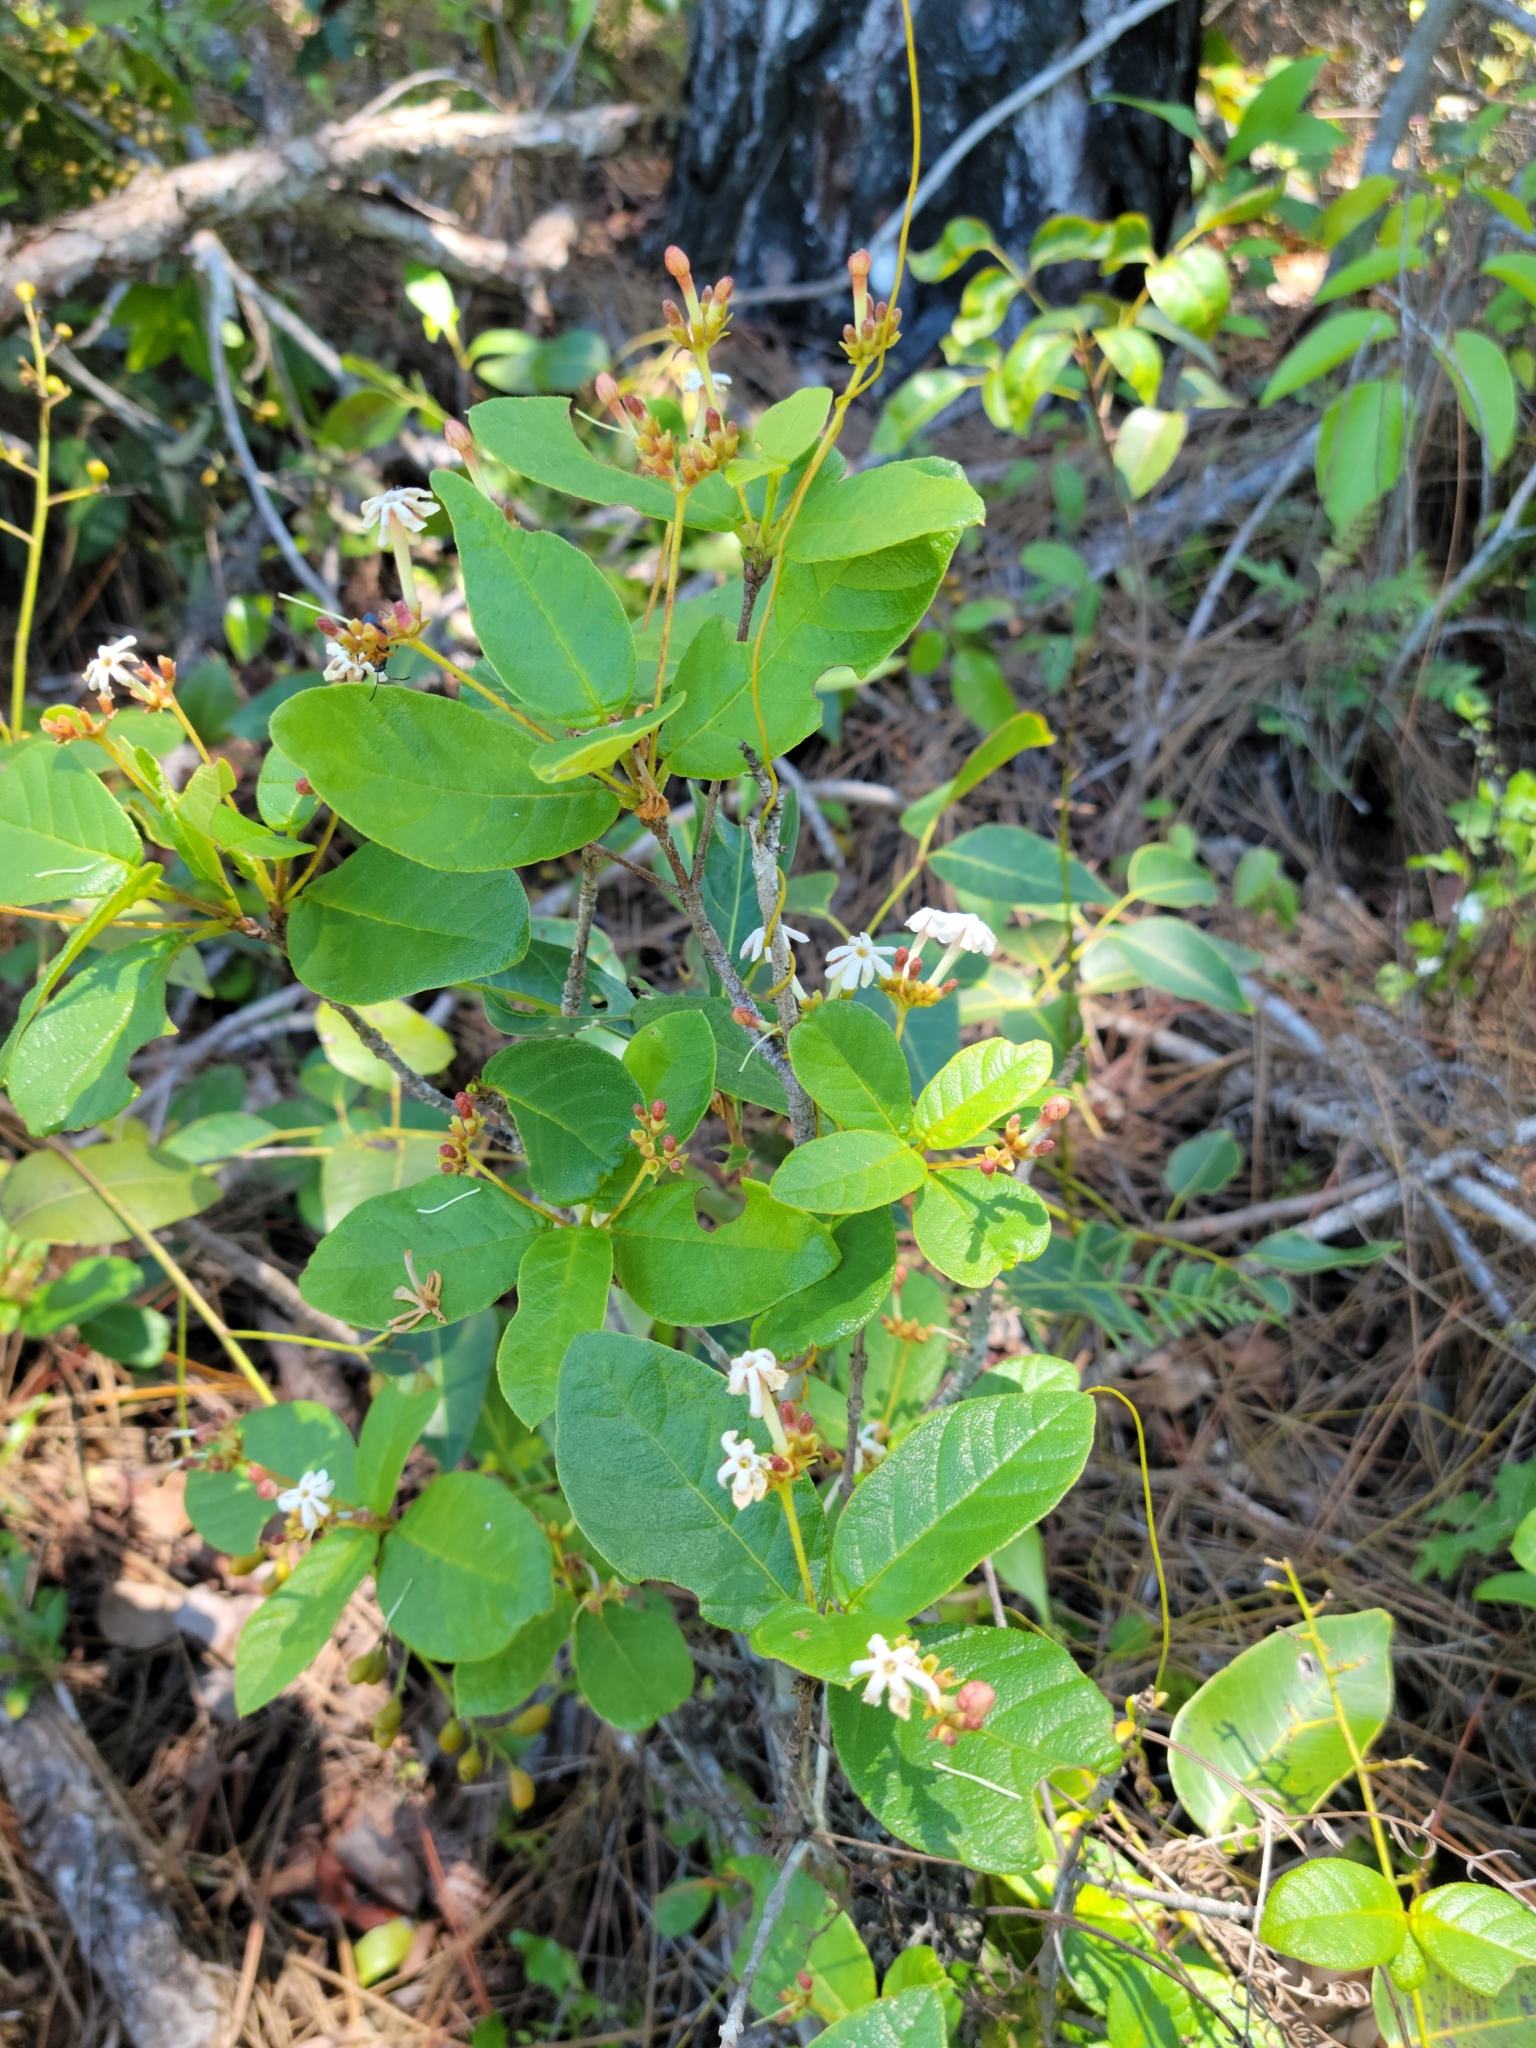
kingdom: Plantae
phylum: Tracheophyta
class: Magnoliopsida
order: Gentianales
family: Rubiaceae
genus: Guettarda
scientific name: Guettarda scabra
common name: Pigeon bay
